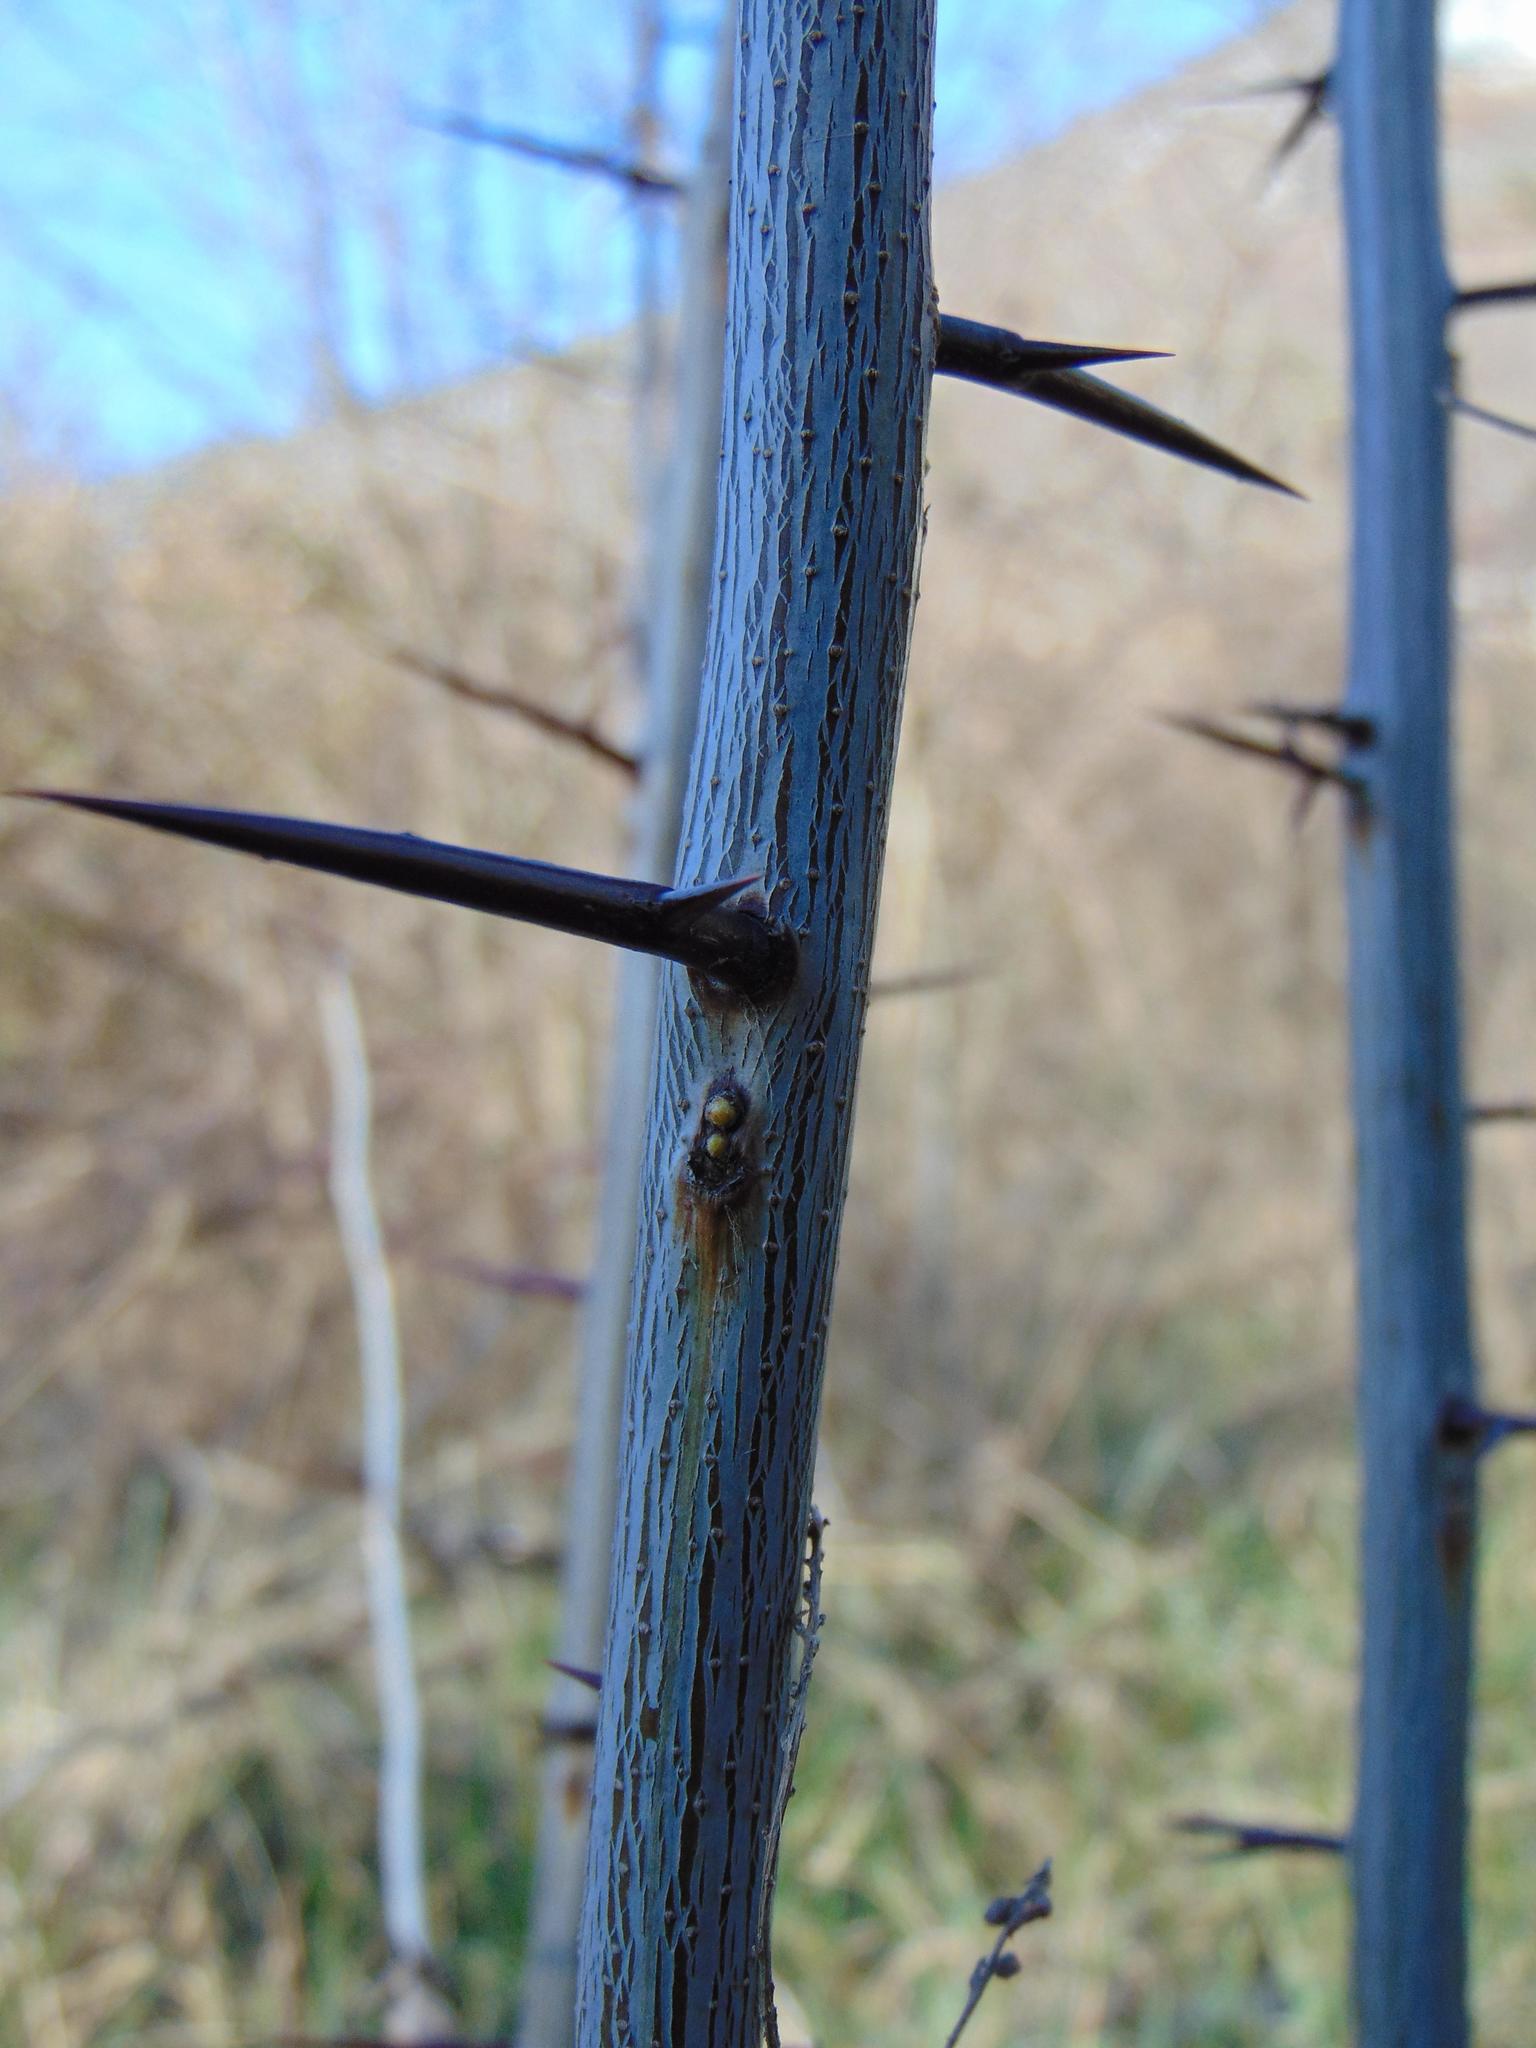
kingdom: Plantae
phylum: Tracheophyta
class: Magnoliopsida
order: Fabales
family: Fabaceae
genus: Gleditsia
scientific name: Gleditsia triacanthos
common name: Common honeylocust
